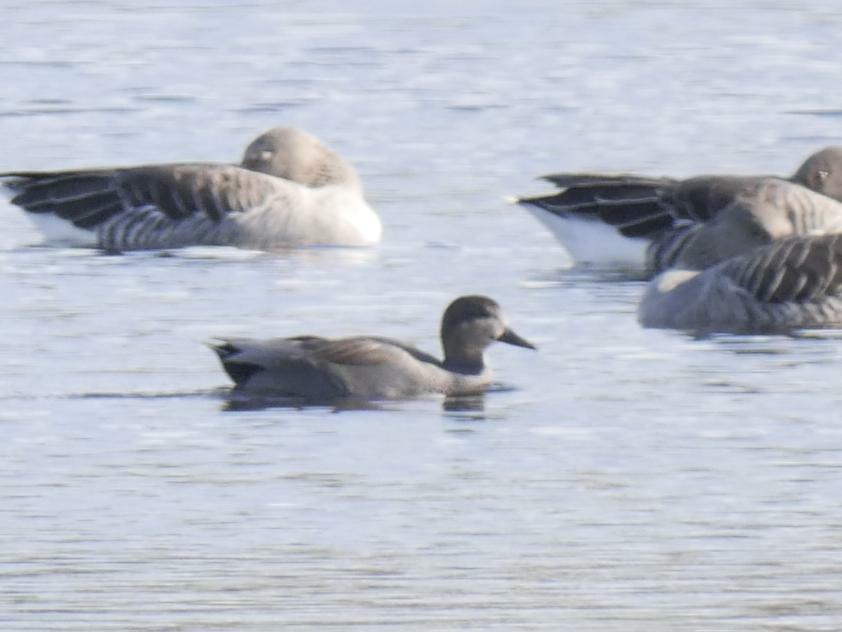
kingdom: Animalia
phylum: Chordata
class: Aves
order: Anseriformes
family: Anatidae
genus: Mareca
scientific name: Mareca strepera
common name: Gadwall
